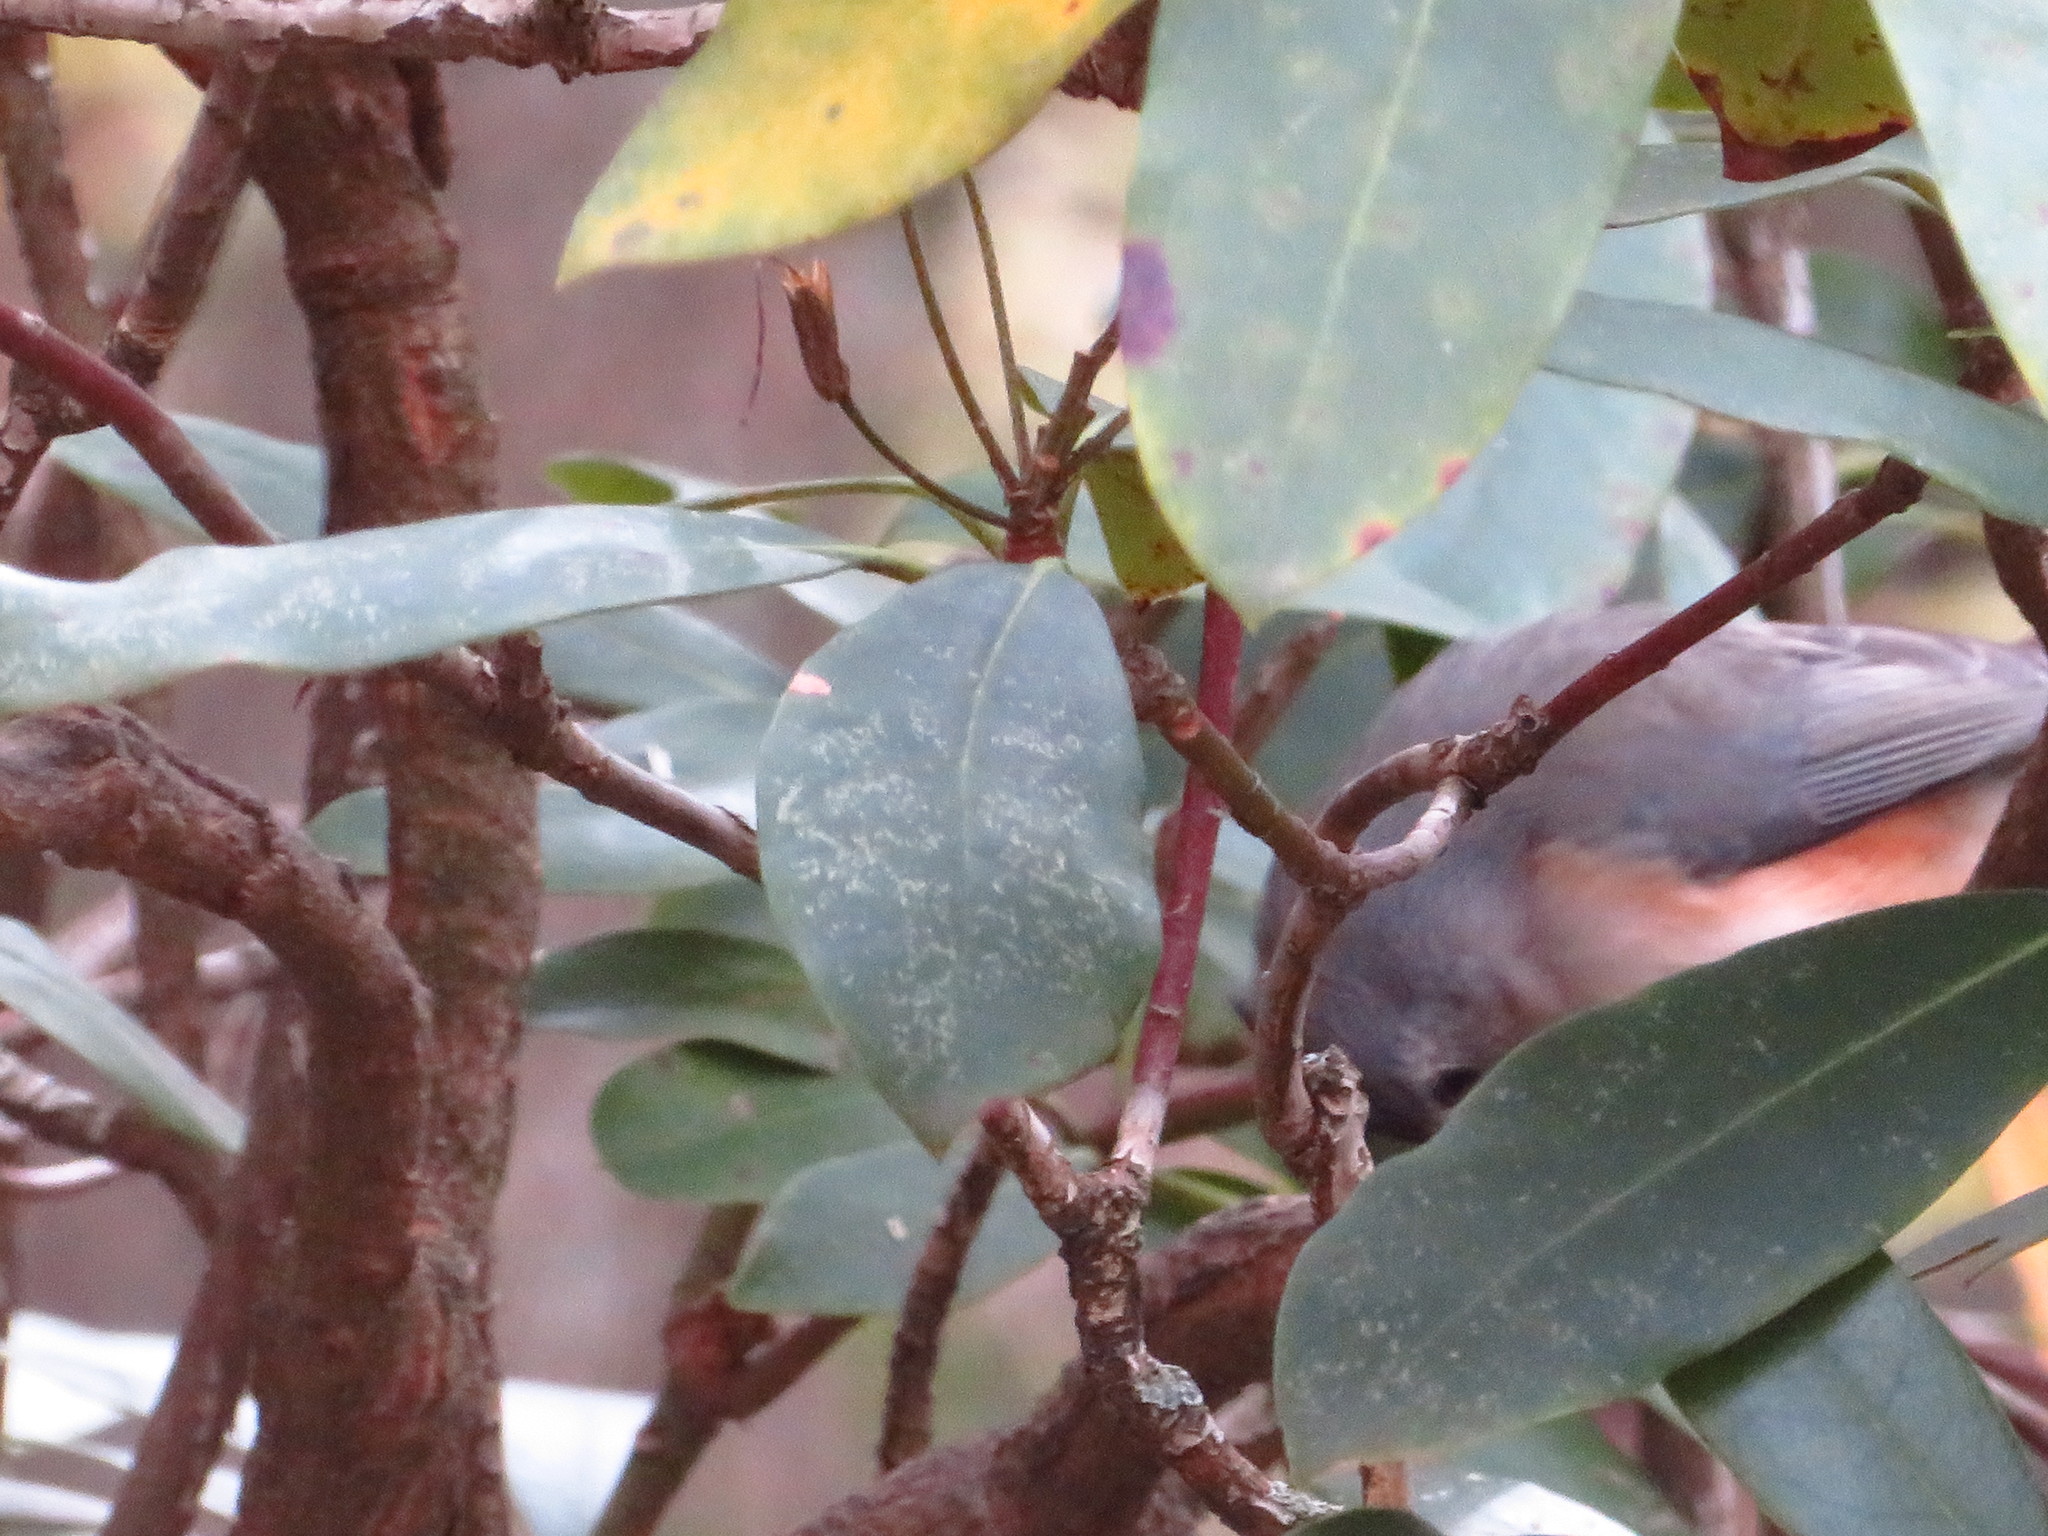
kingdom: Animalia
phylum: Chordata
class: Aves
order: Passeriformes
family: Paridae
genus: Baeolophus
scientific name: Baeolophus bicolor
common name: Tufted titmouse
